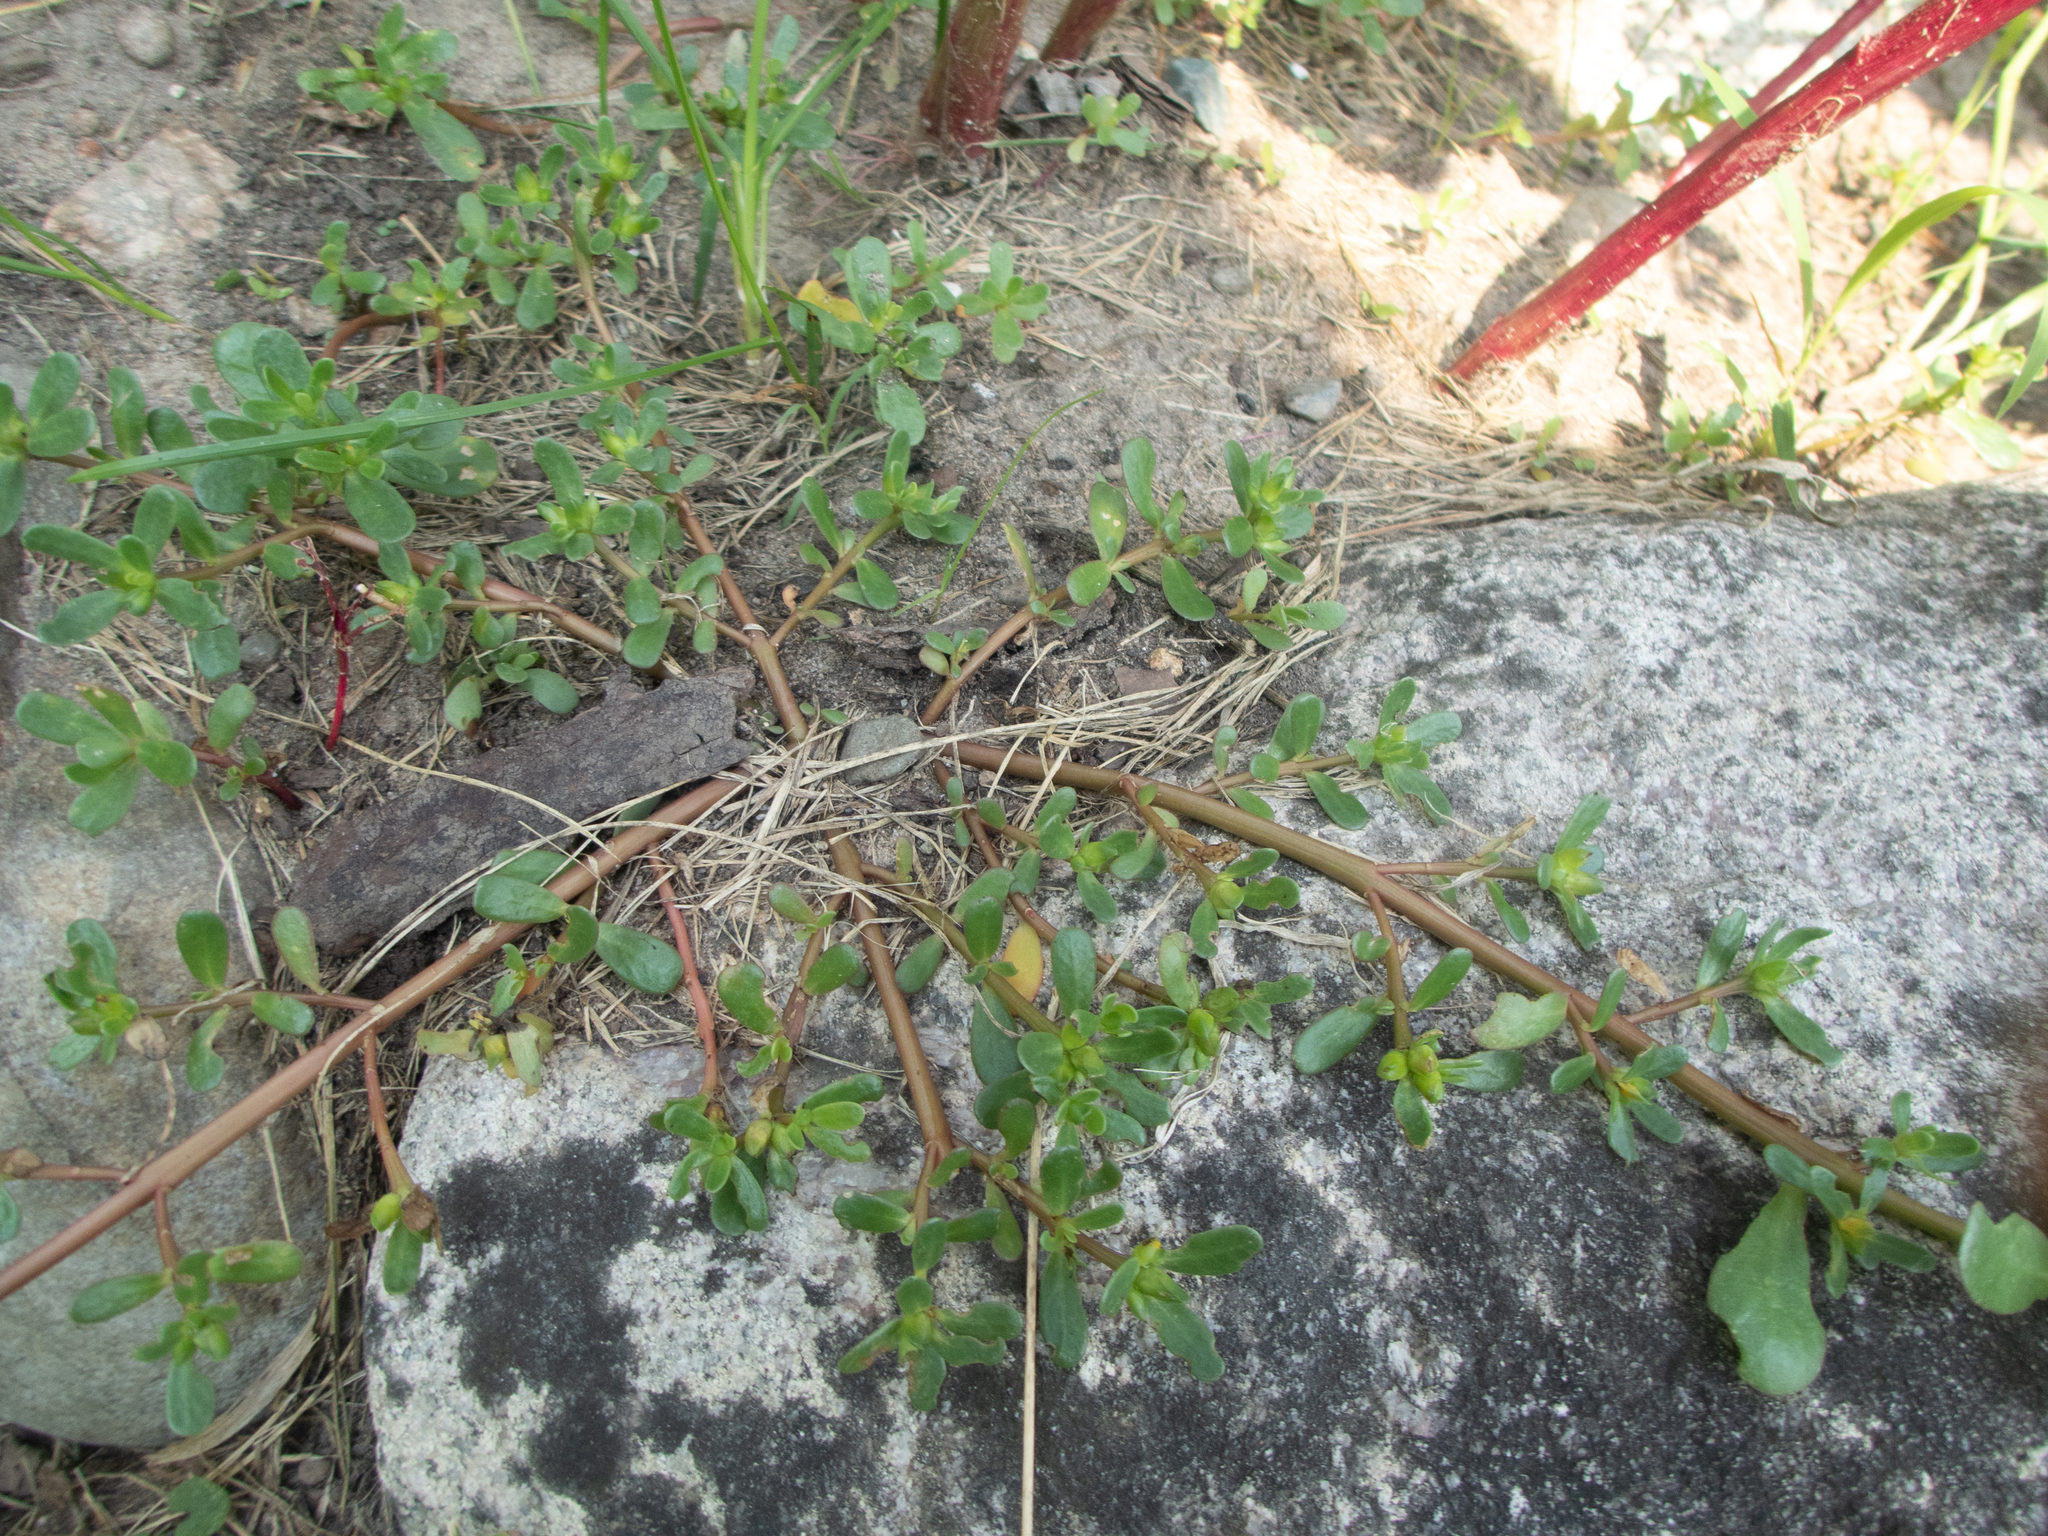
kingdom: Plantae
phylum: Tracheophyta
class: Magnoliopsida
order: Caryophyllales
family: Portulacaceae
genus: Portulaca
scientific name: Portulaca oleracea
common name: Common purslane
